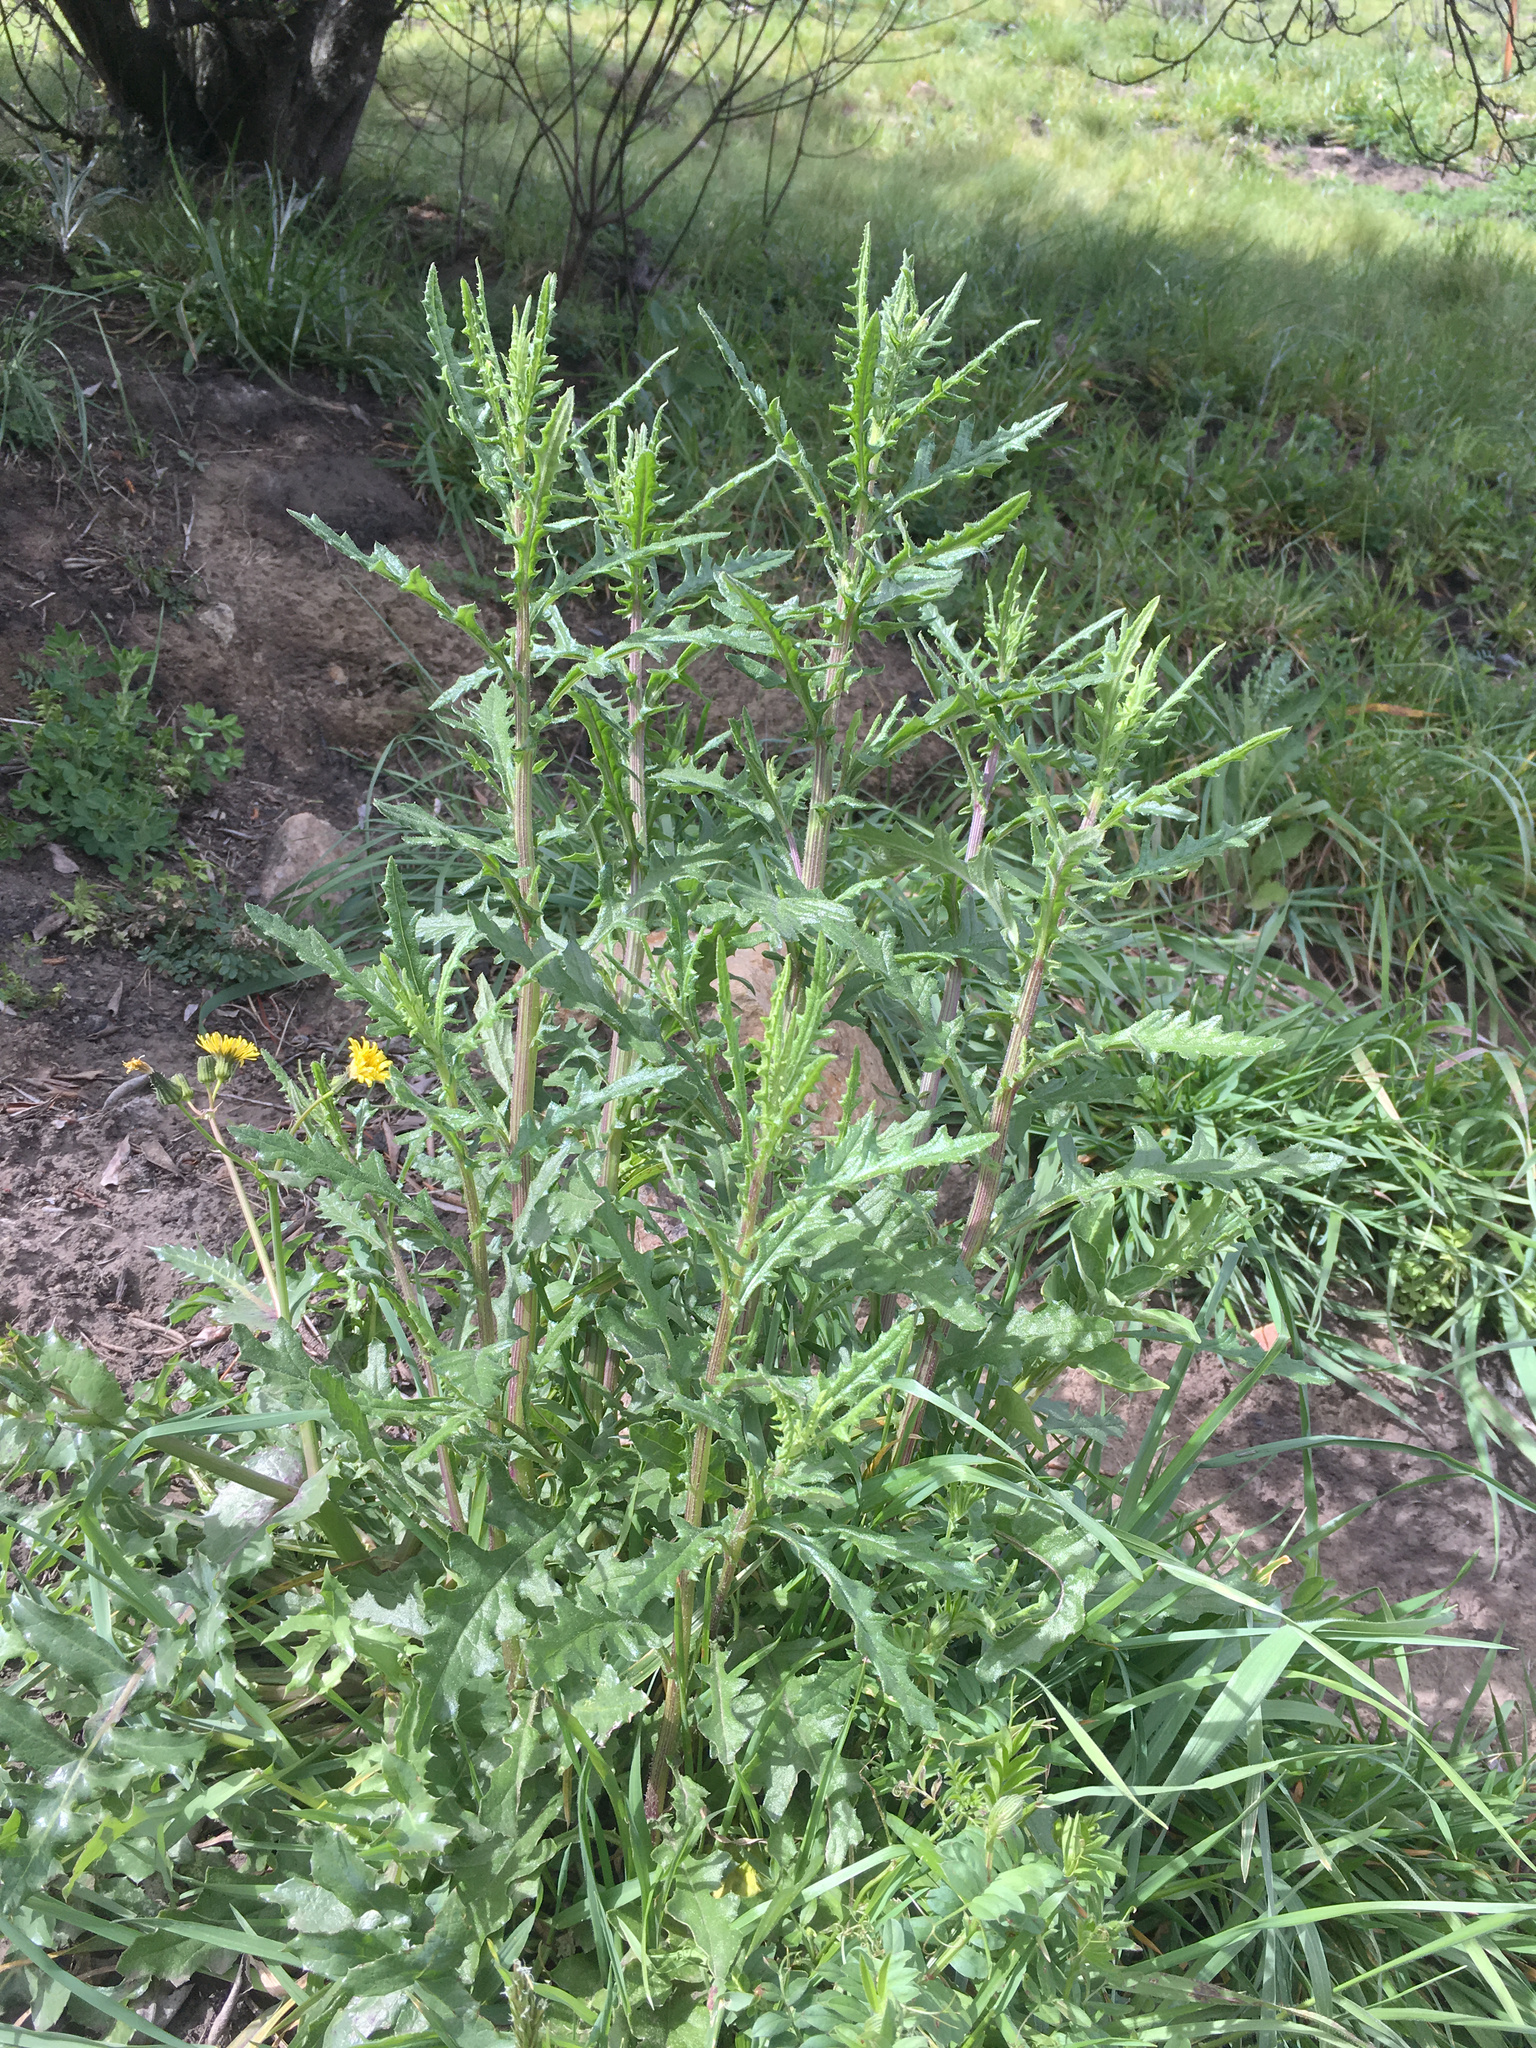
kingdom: Plantae
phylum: Tracheophyta
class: Magnoliopsida
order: Asterales
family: Asteraceae
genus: Senecio
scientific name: Senecio hispidulus
